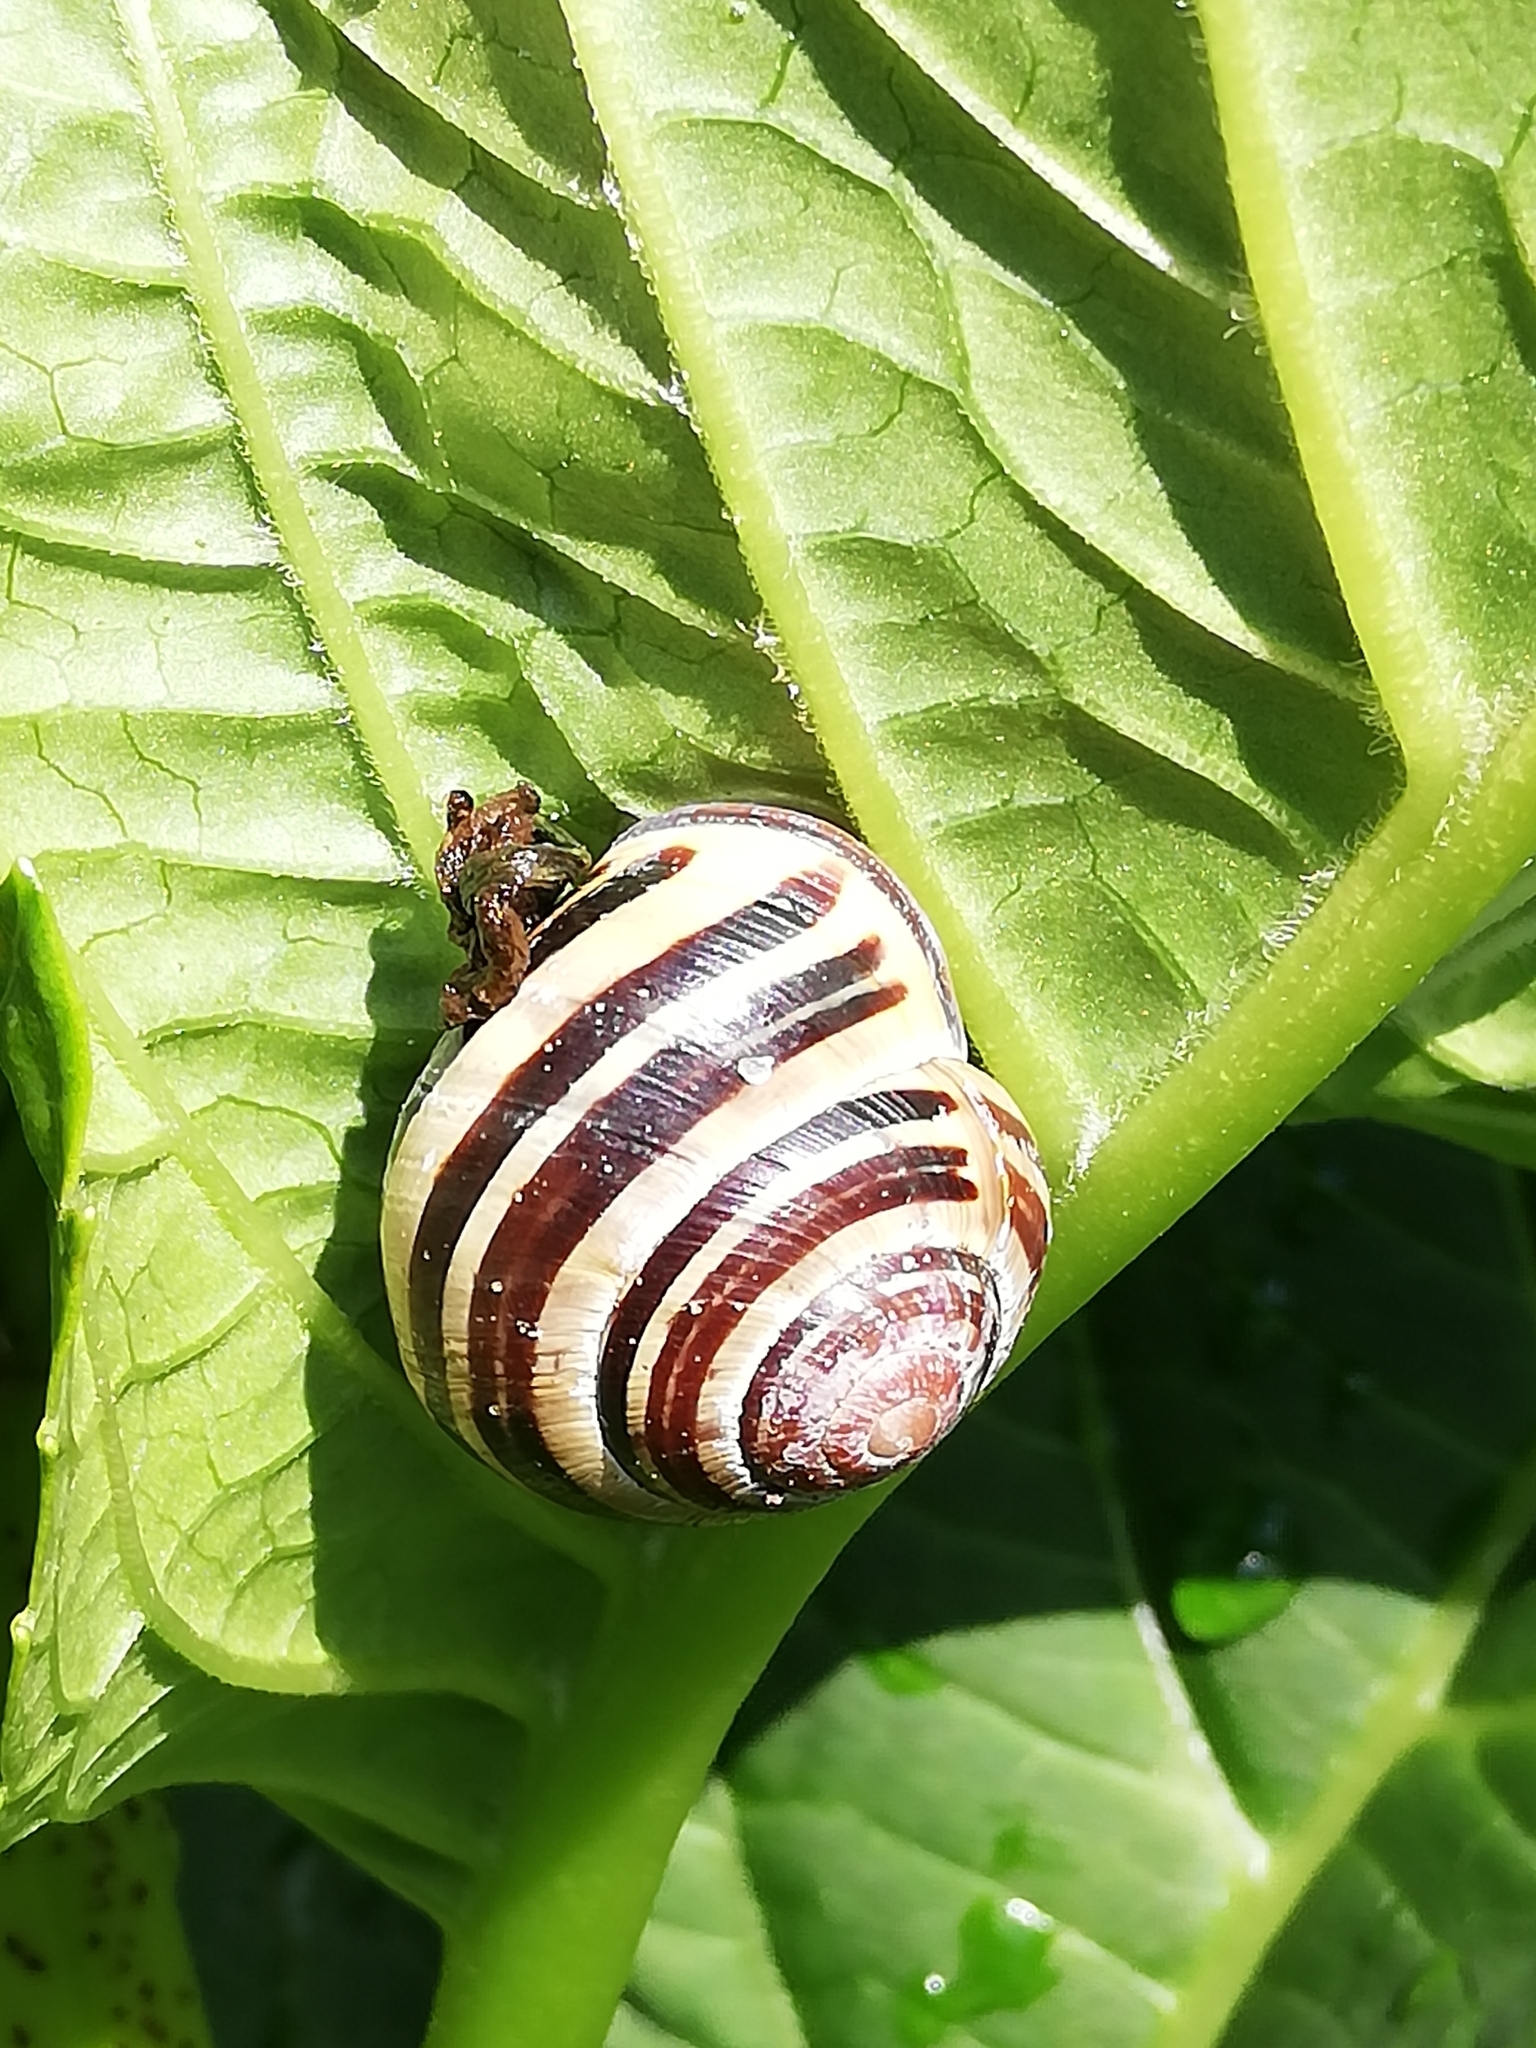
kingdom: Animalia
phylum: Mollusca
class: Gastropoda
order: Stylommatophora
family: Helicidae
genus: Cepaea
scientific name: Cepaea nemoralis
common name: Grovesnail
